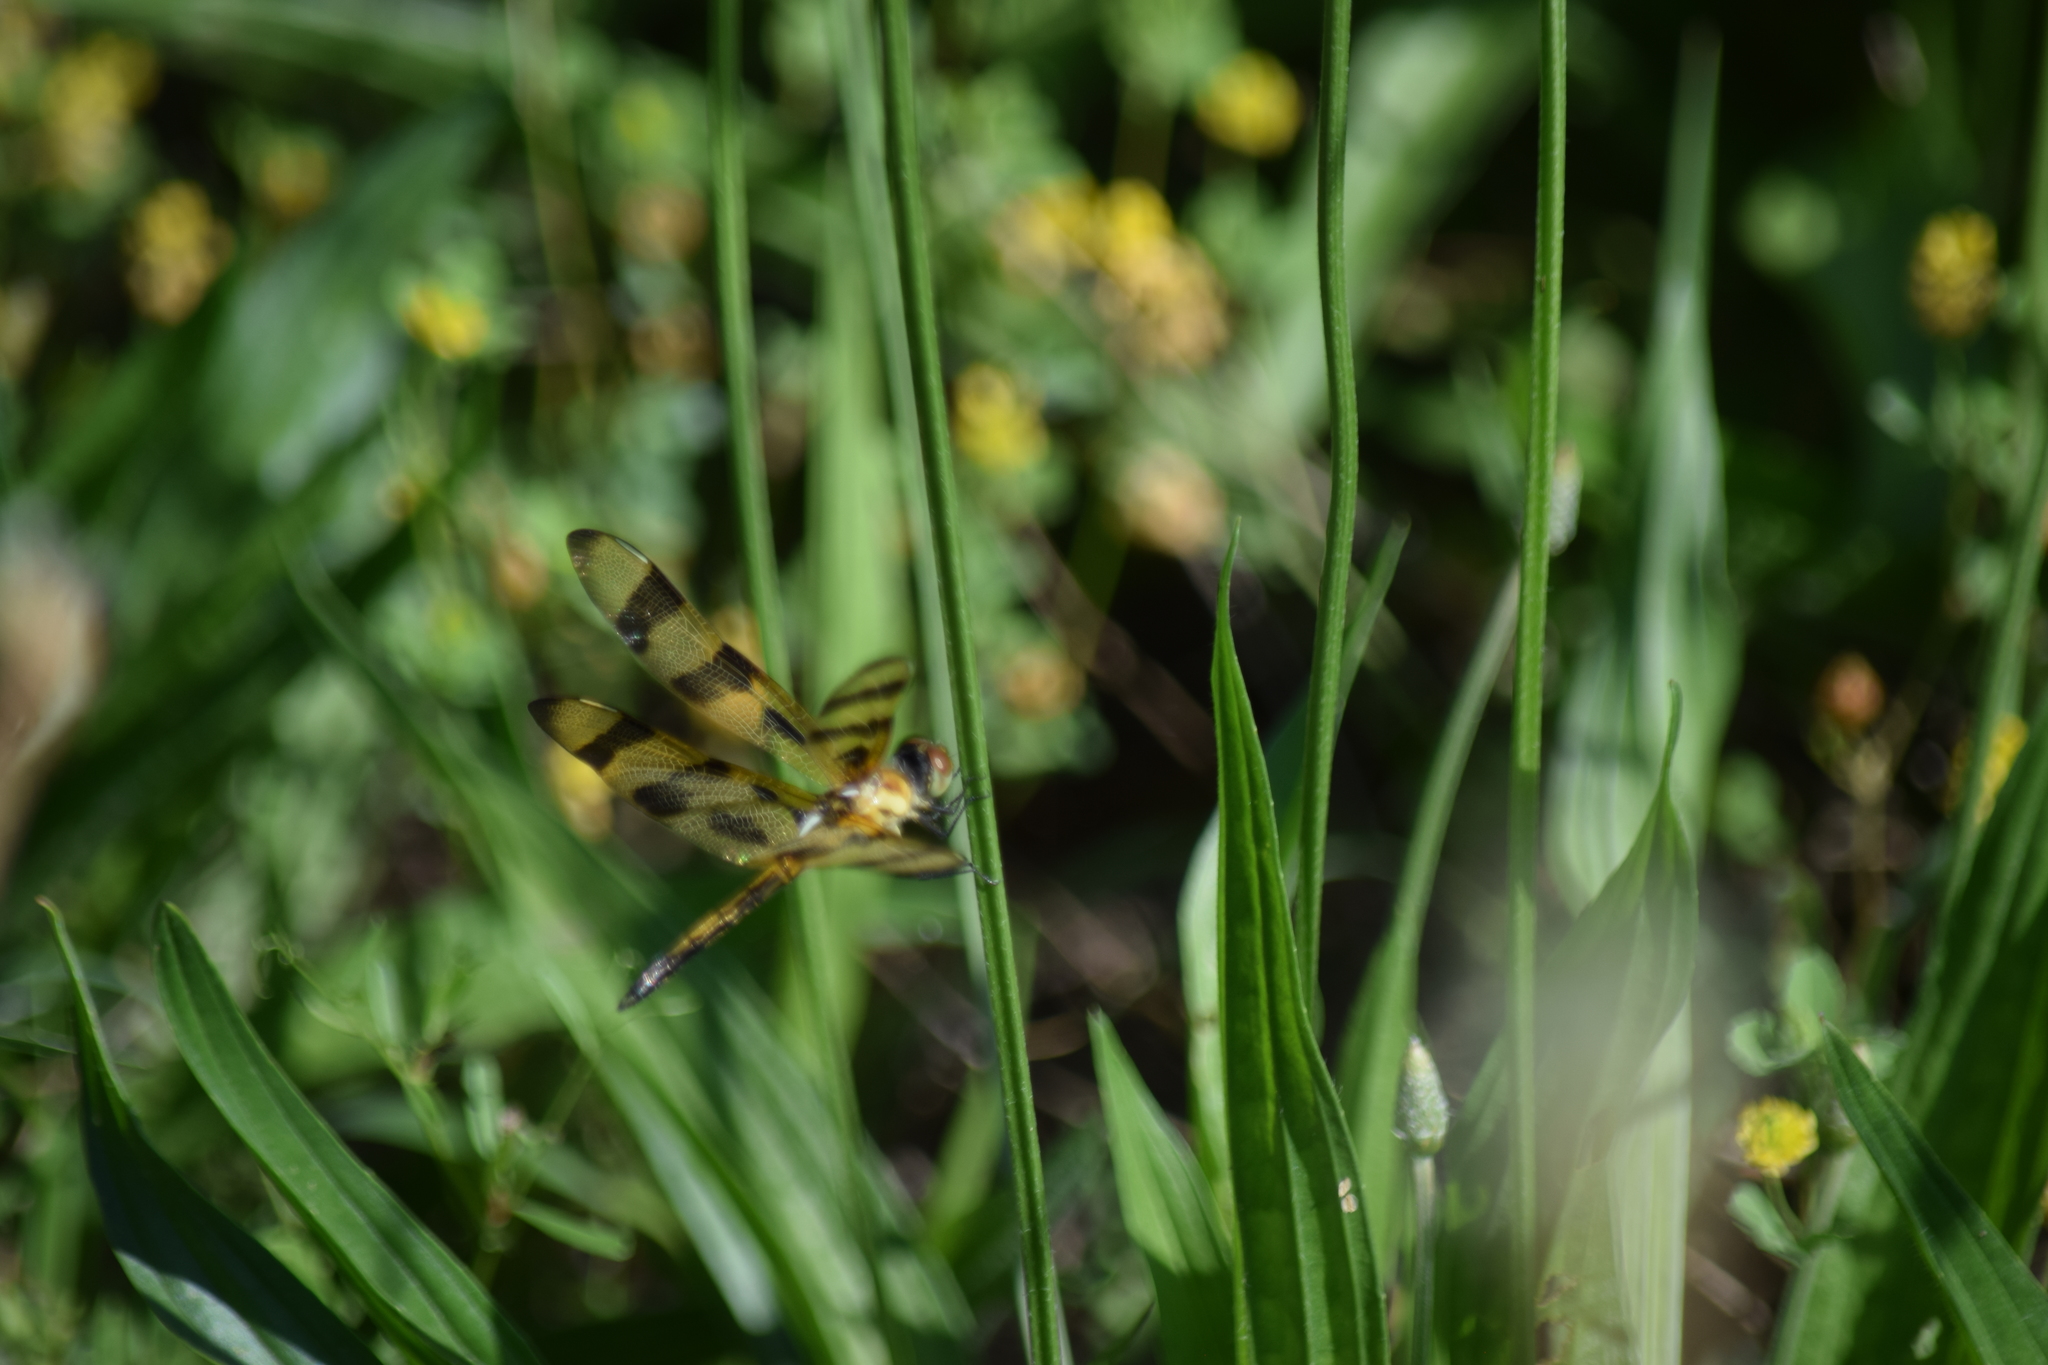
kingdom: Animalia
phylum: Arthropoda
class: Insecta
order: Odonata
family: Libellulidae
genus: Celithemis
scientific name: Celithemis eponina
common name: Halloween pennant
